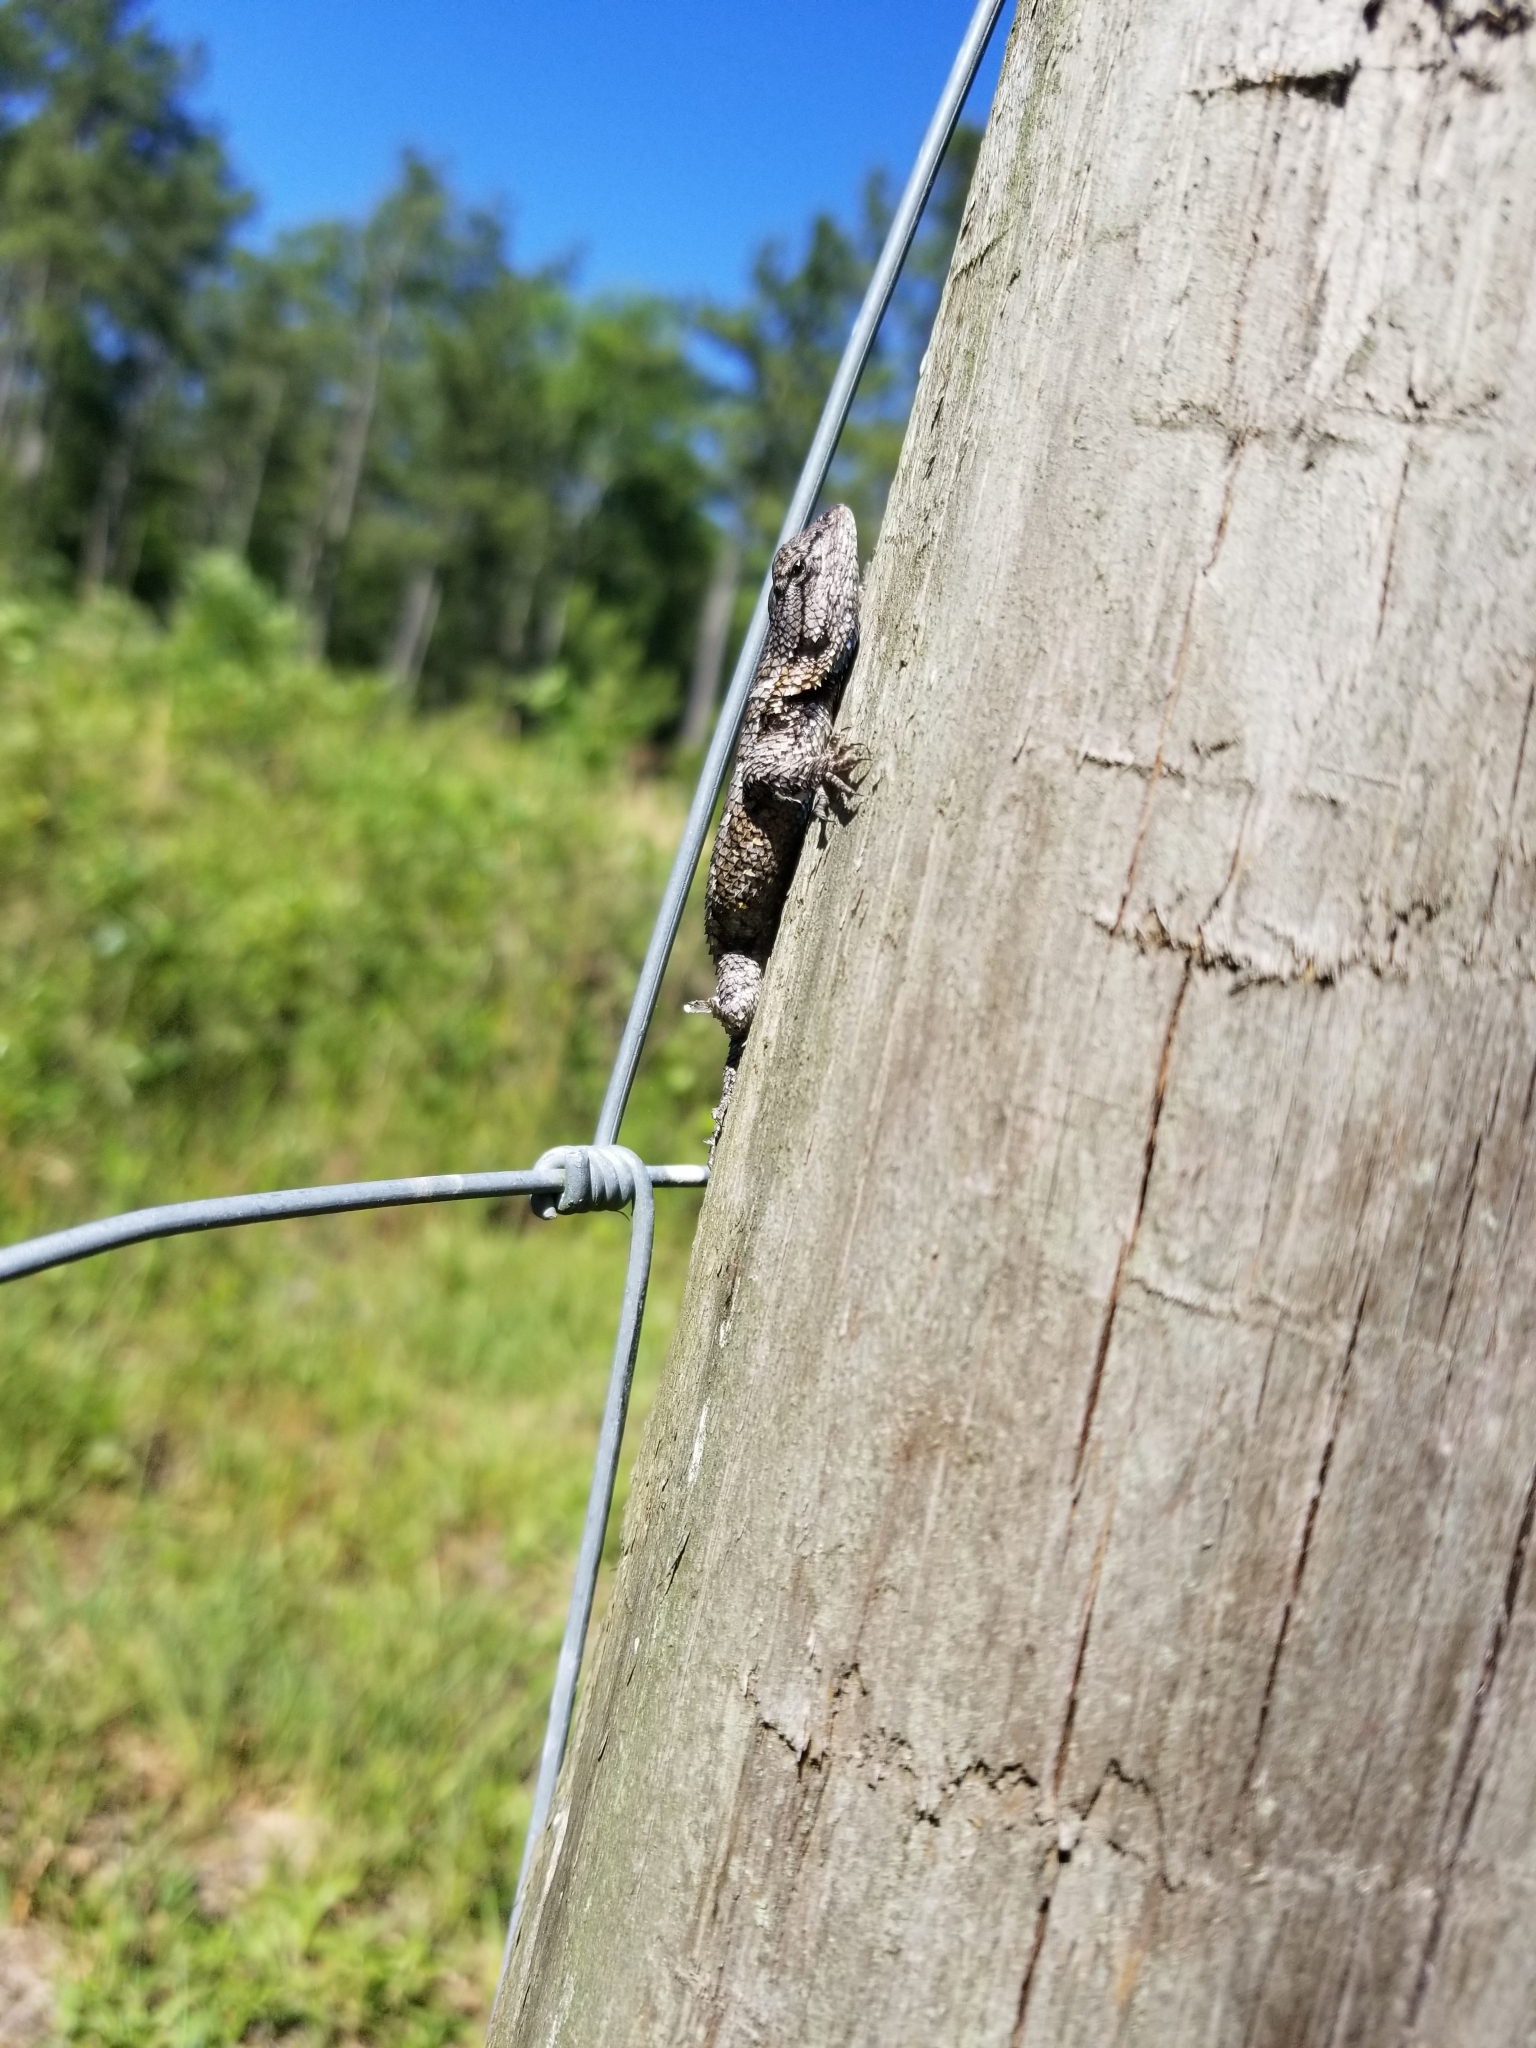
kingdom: Animalia
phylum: Chordata
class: Squamata
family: Phrynosomatidae
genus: Sceloporus
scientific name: Sceloporus undulatus
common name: Eastern fence lizard
